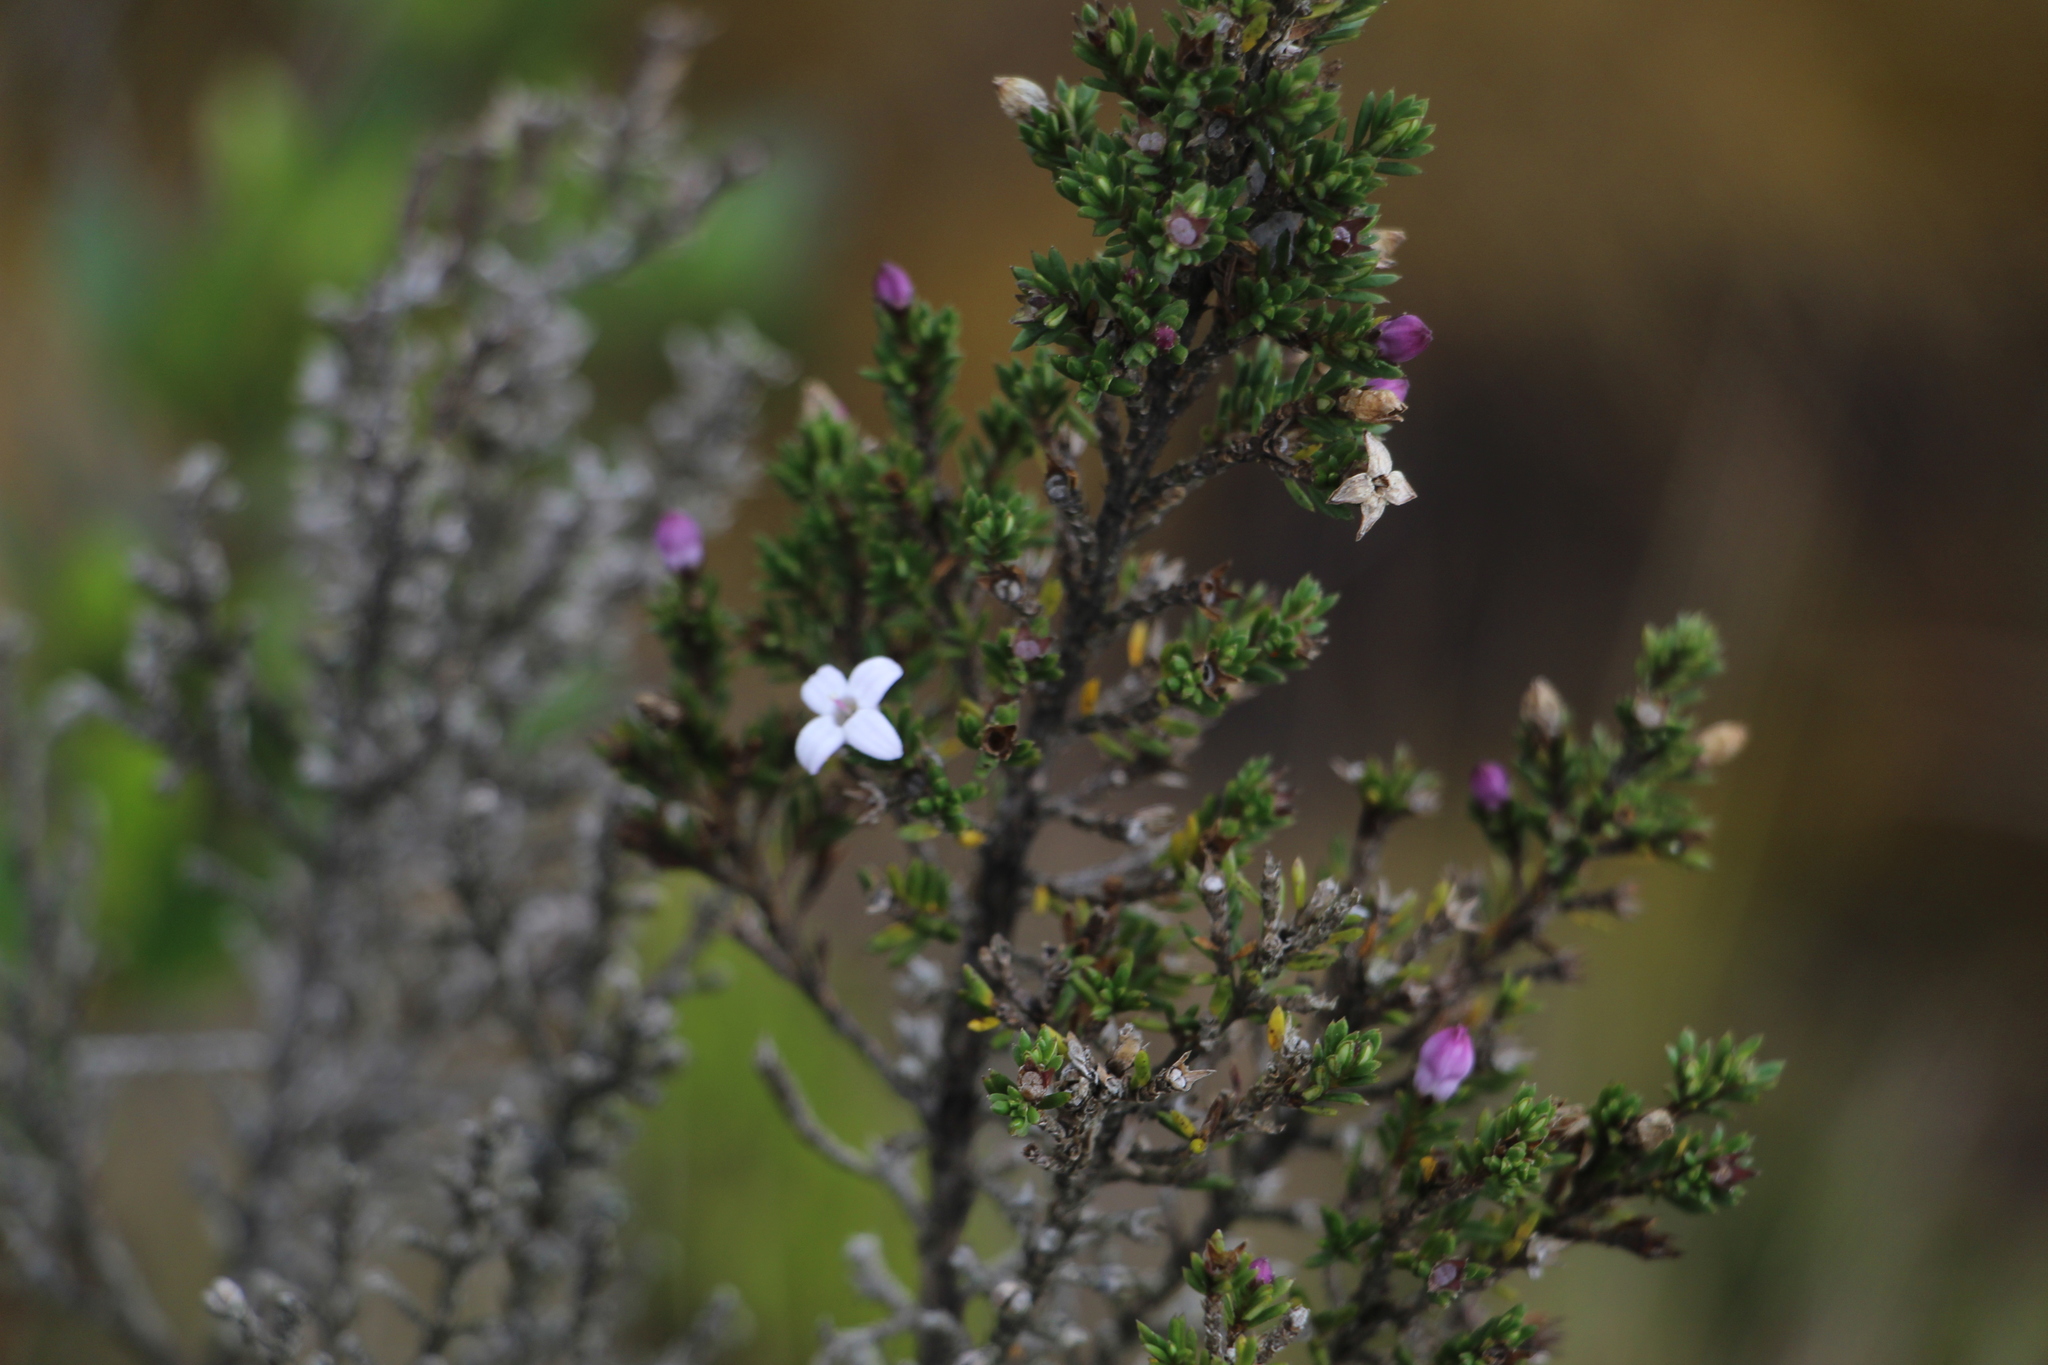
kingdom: Plantae
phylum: Tracheophyta
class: Magnoliopsida
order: Gentianales
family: Rubiaceae
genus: Arcytophyllum
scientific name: Arcytophyllum nitidum
